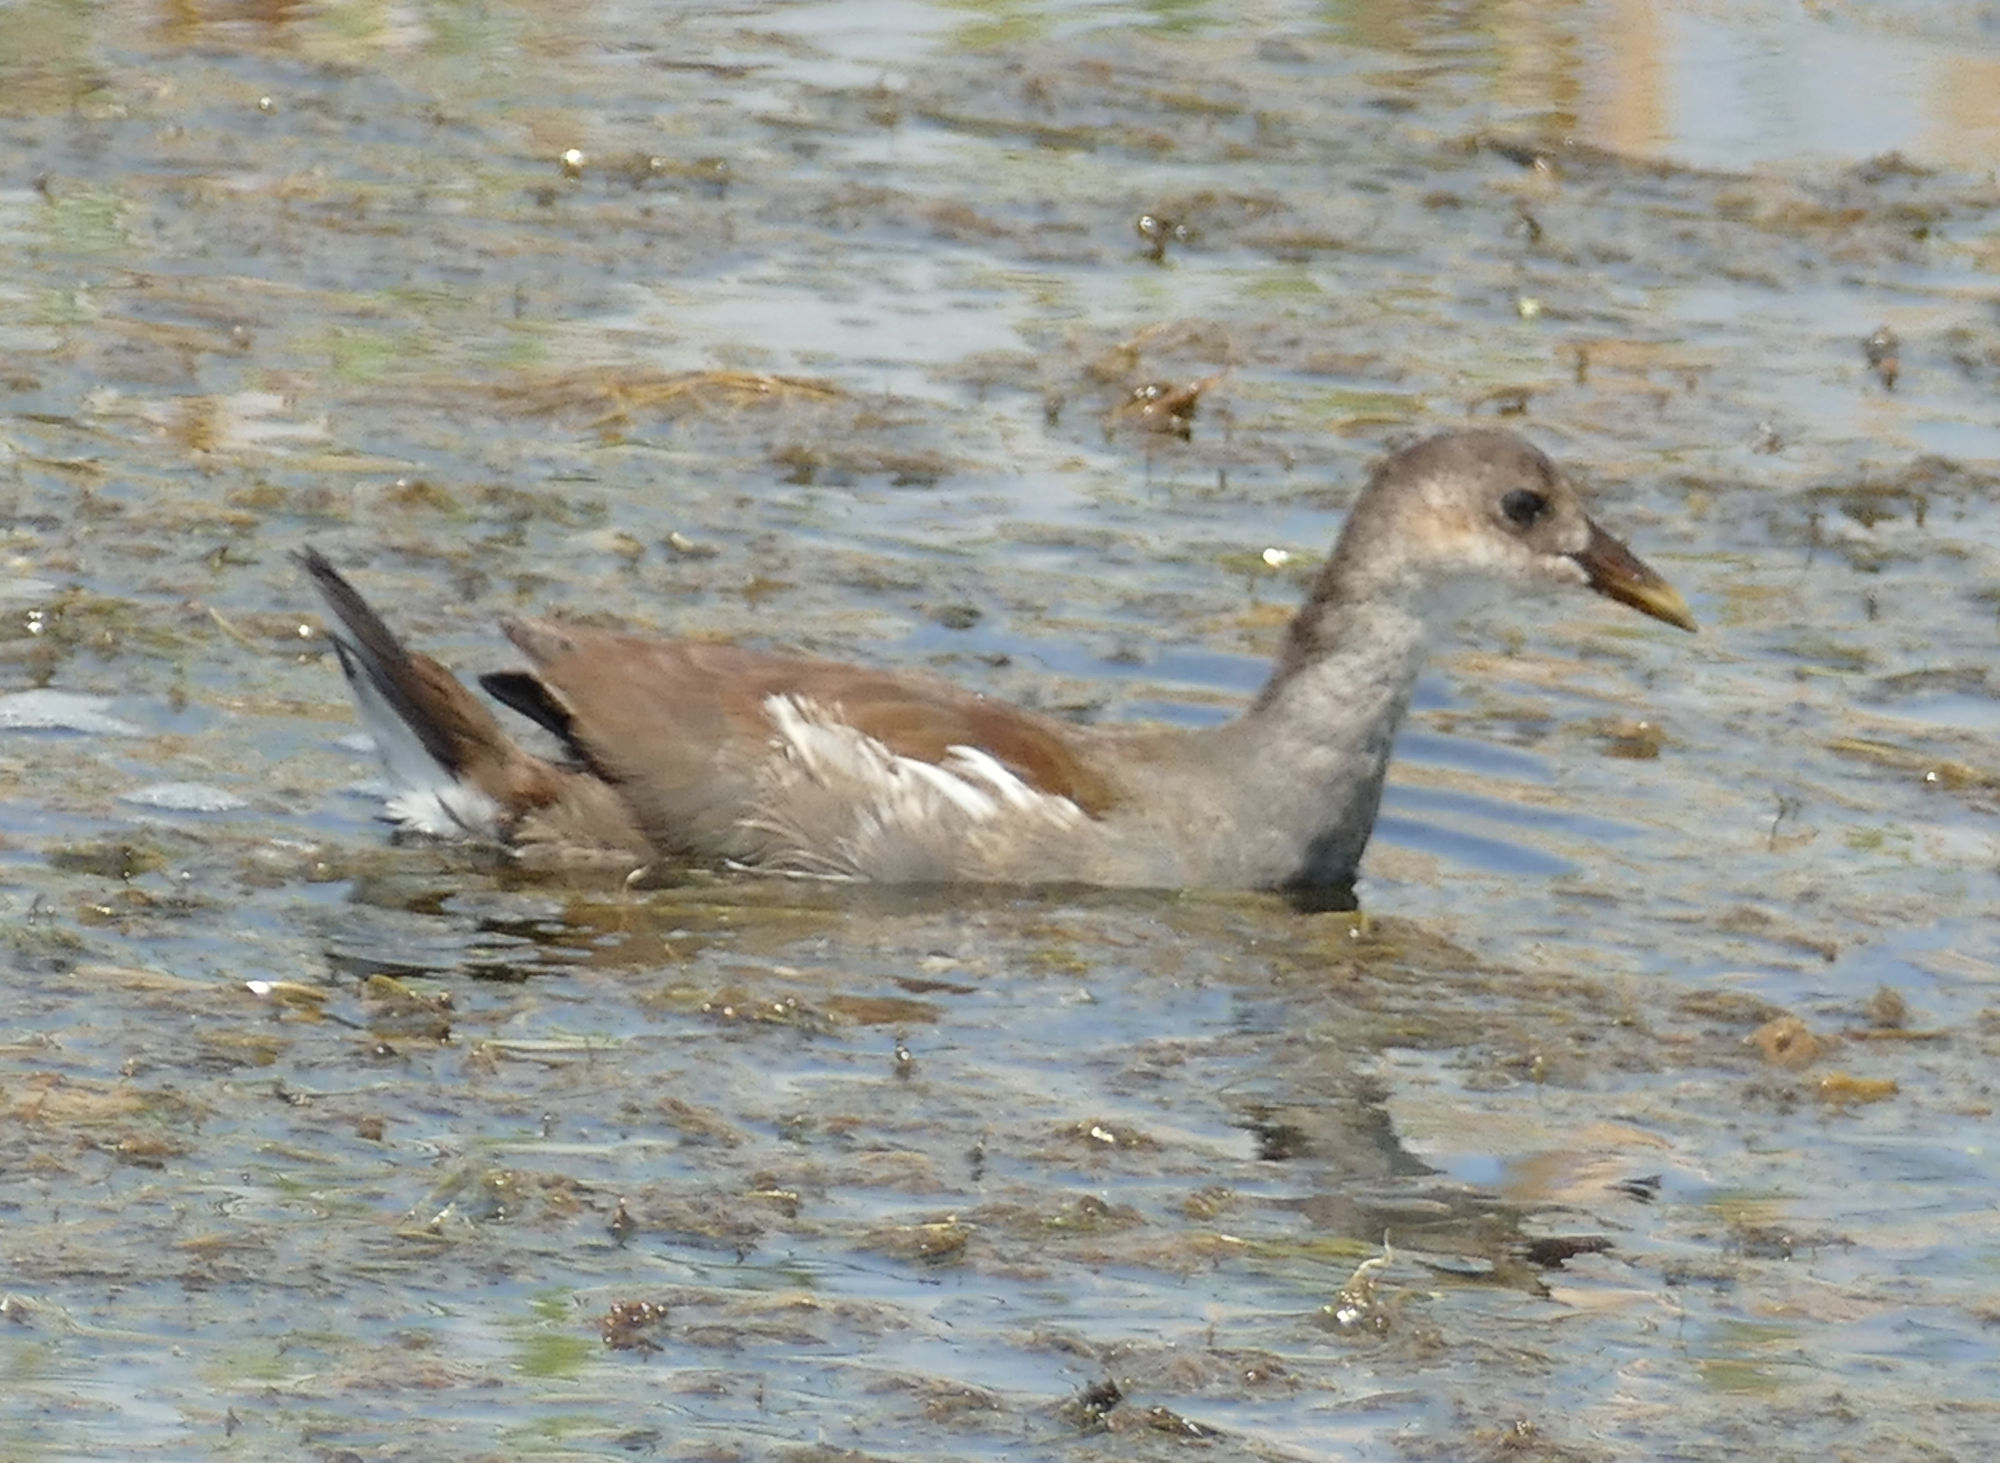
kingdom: Animalia
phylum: Chordata
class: Aves
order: Gruiformes
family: Rallidae
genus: Gallinula
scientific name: Gallinula chloropus
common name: Common moorhen
